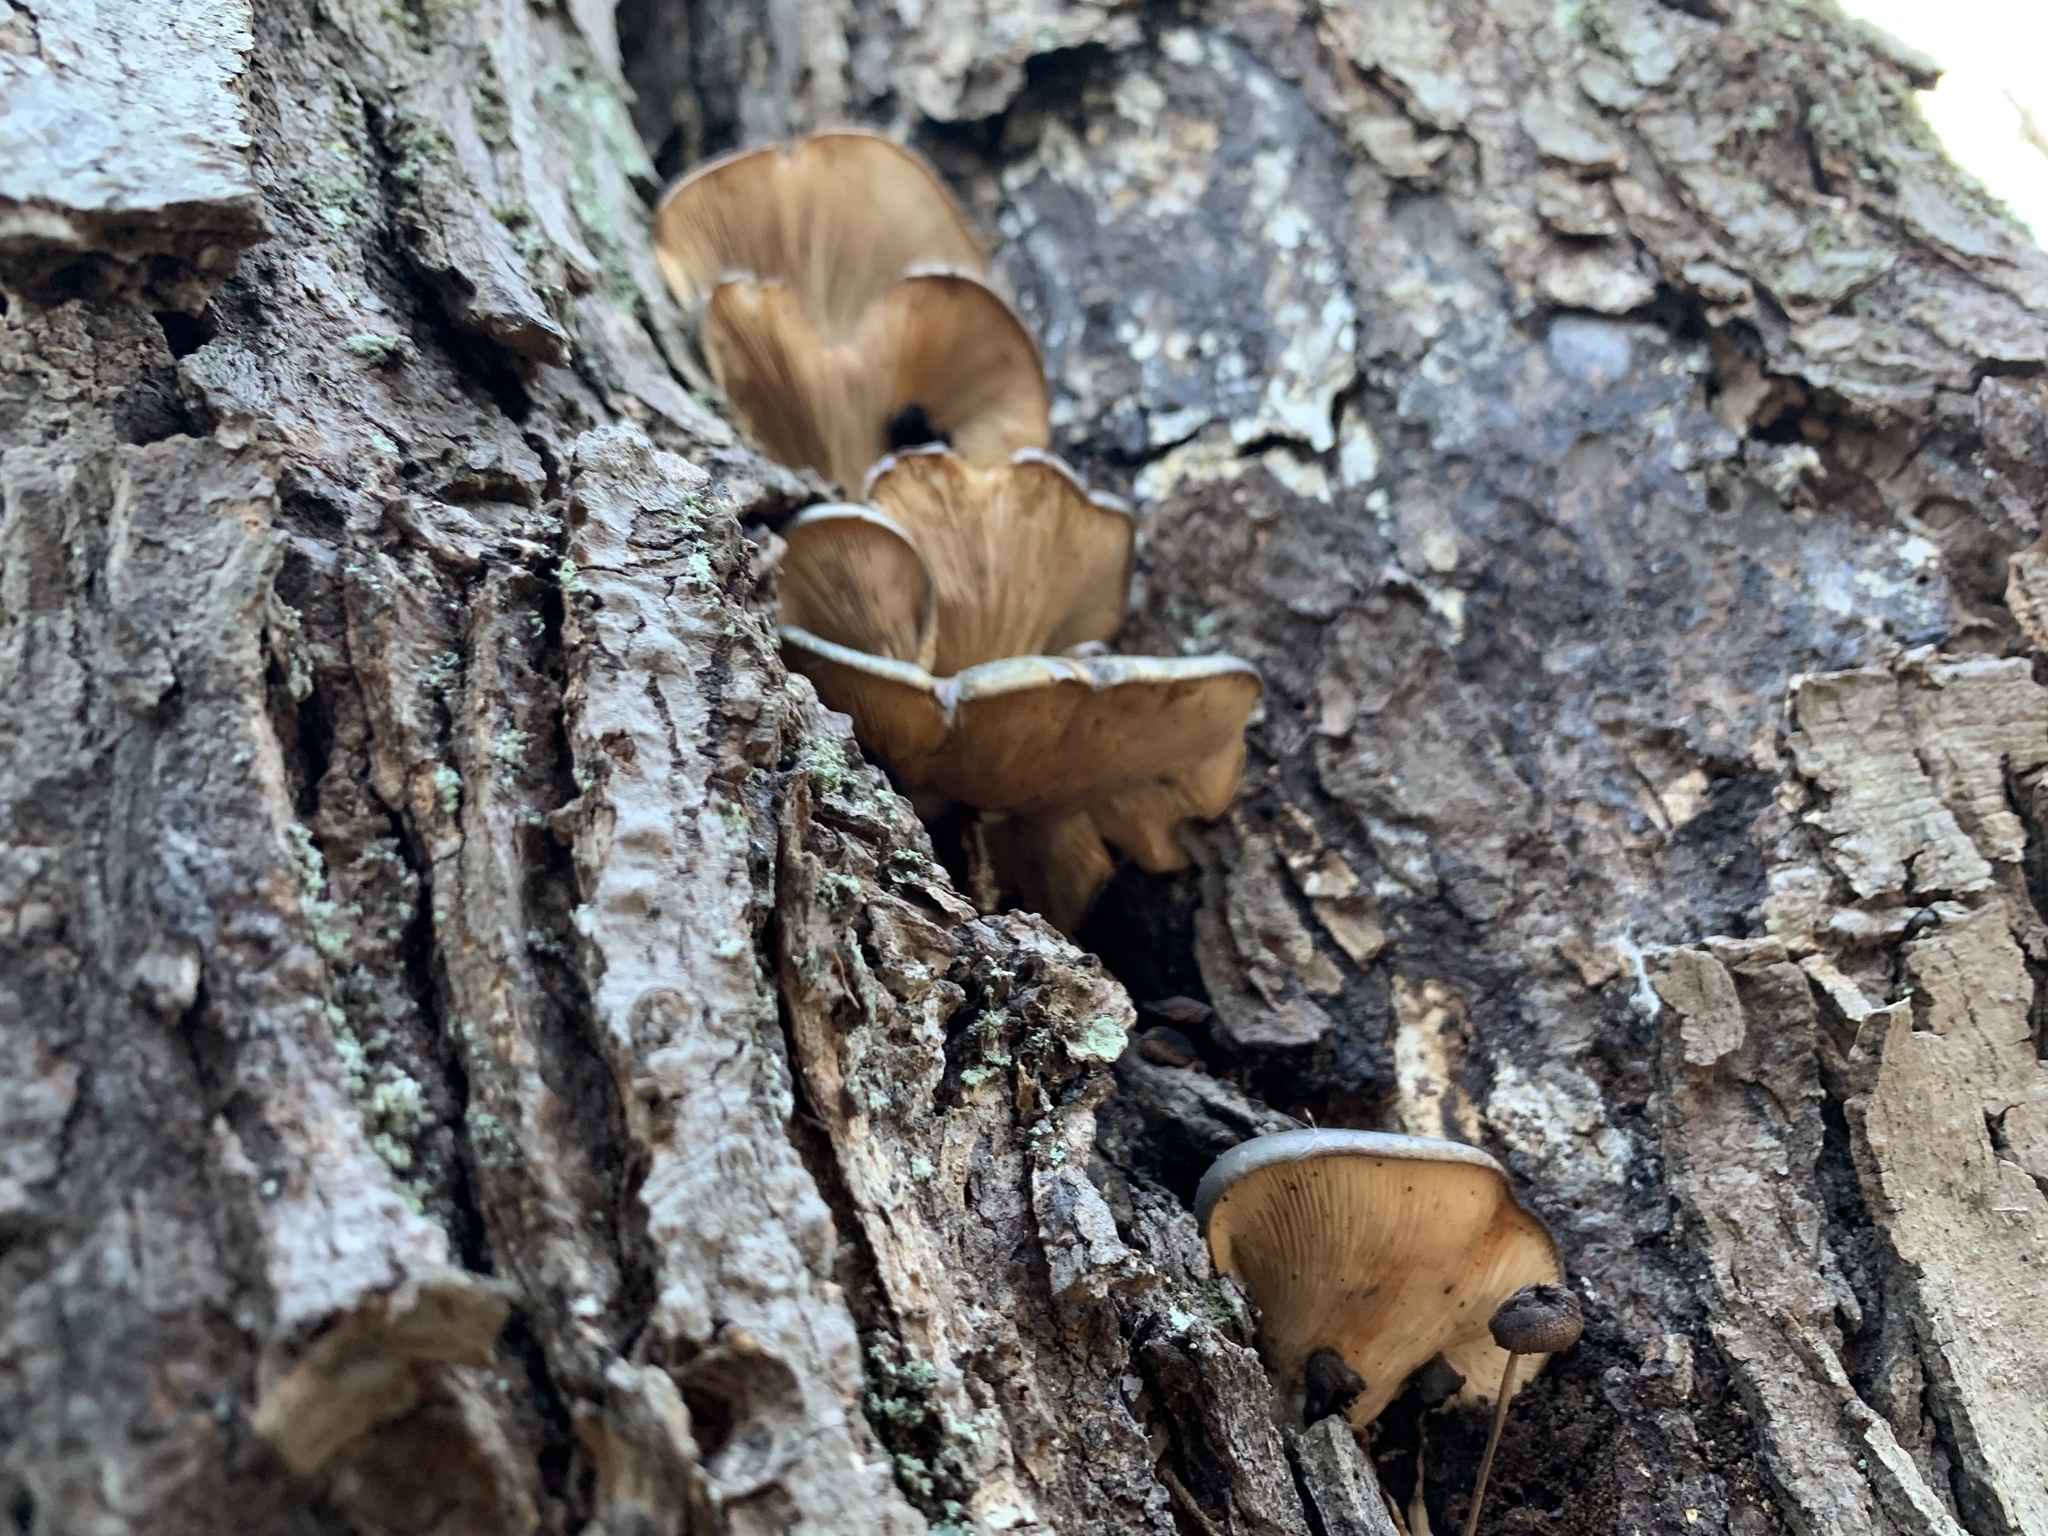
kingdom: Fungi
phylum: Basidiomycota
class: Agaricomycetes
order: Agaricales
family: Sarcomyxaceae
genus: Sarcomyxa
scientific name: Sarcomyxa serotina
